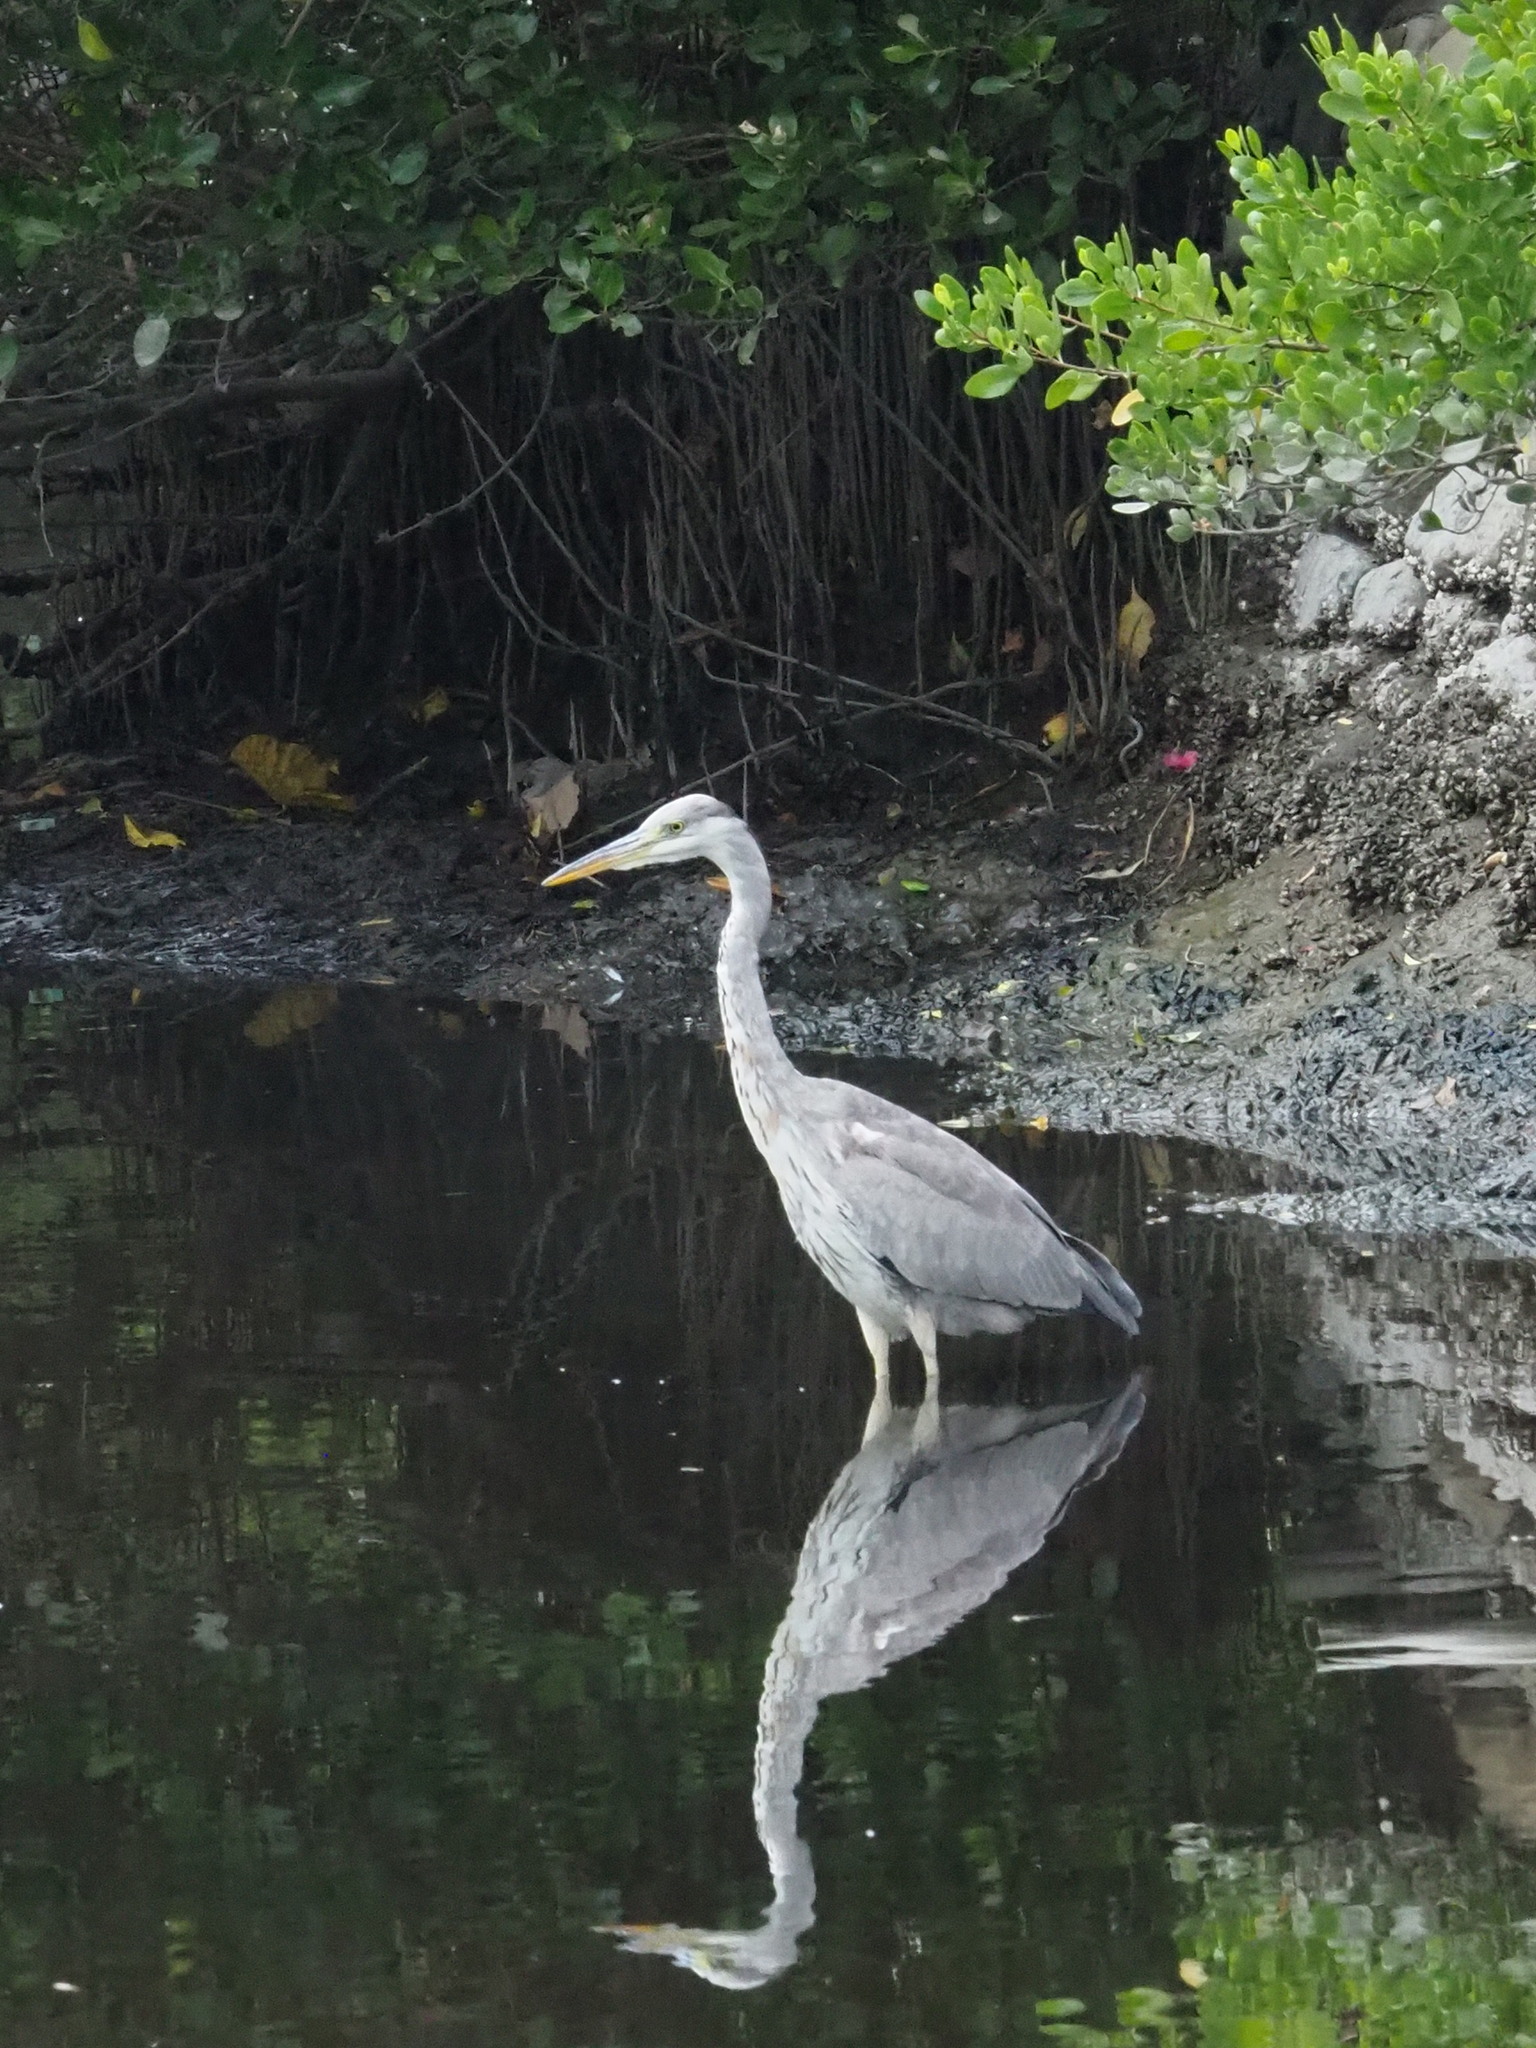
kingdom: Animalia
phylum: Chordata
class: Aves
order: Pelecaniformes
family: Ardeidae
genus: Ardea
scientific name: Ardea cinerea
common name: Grey heron
